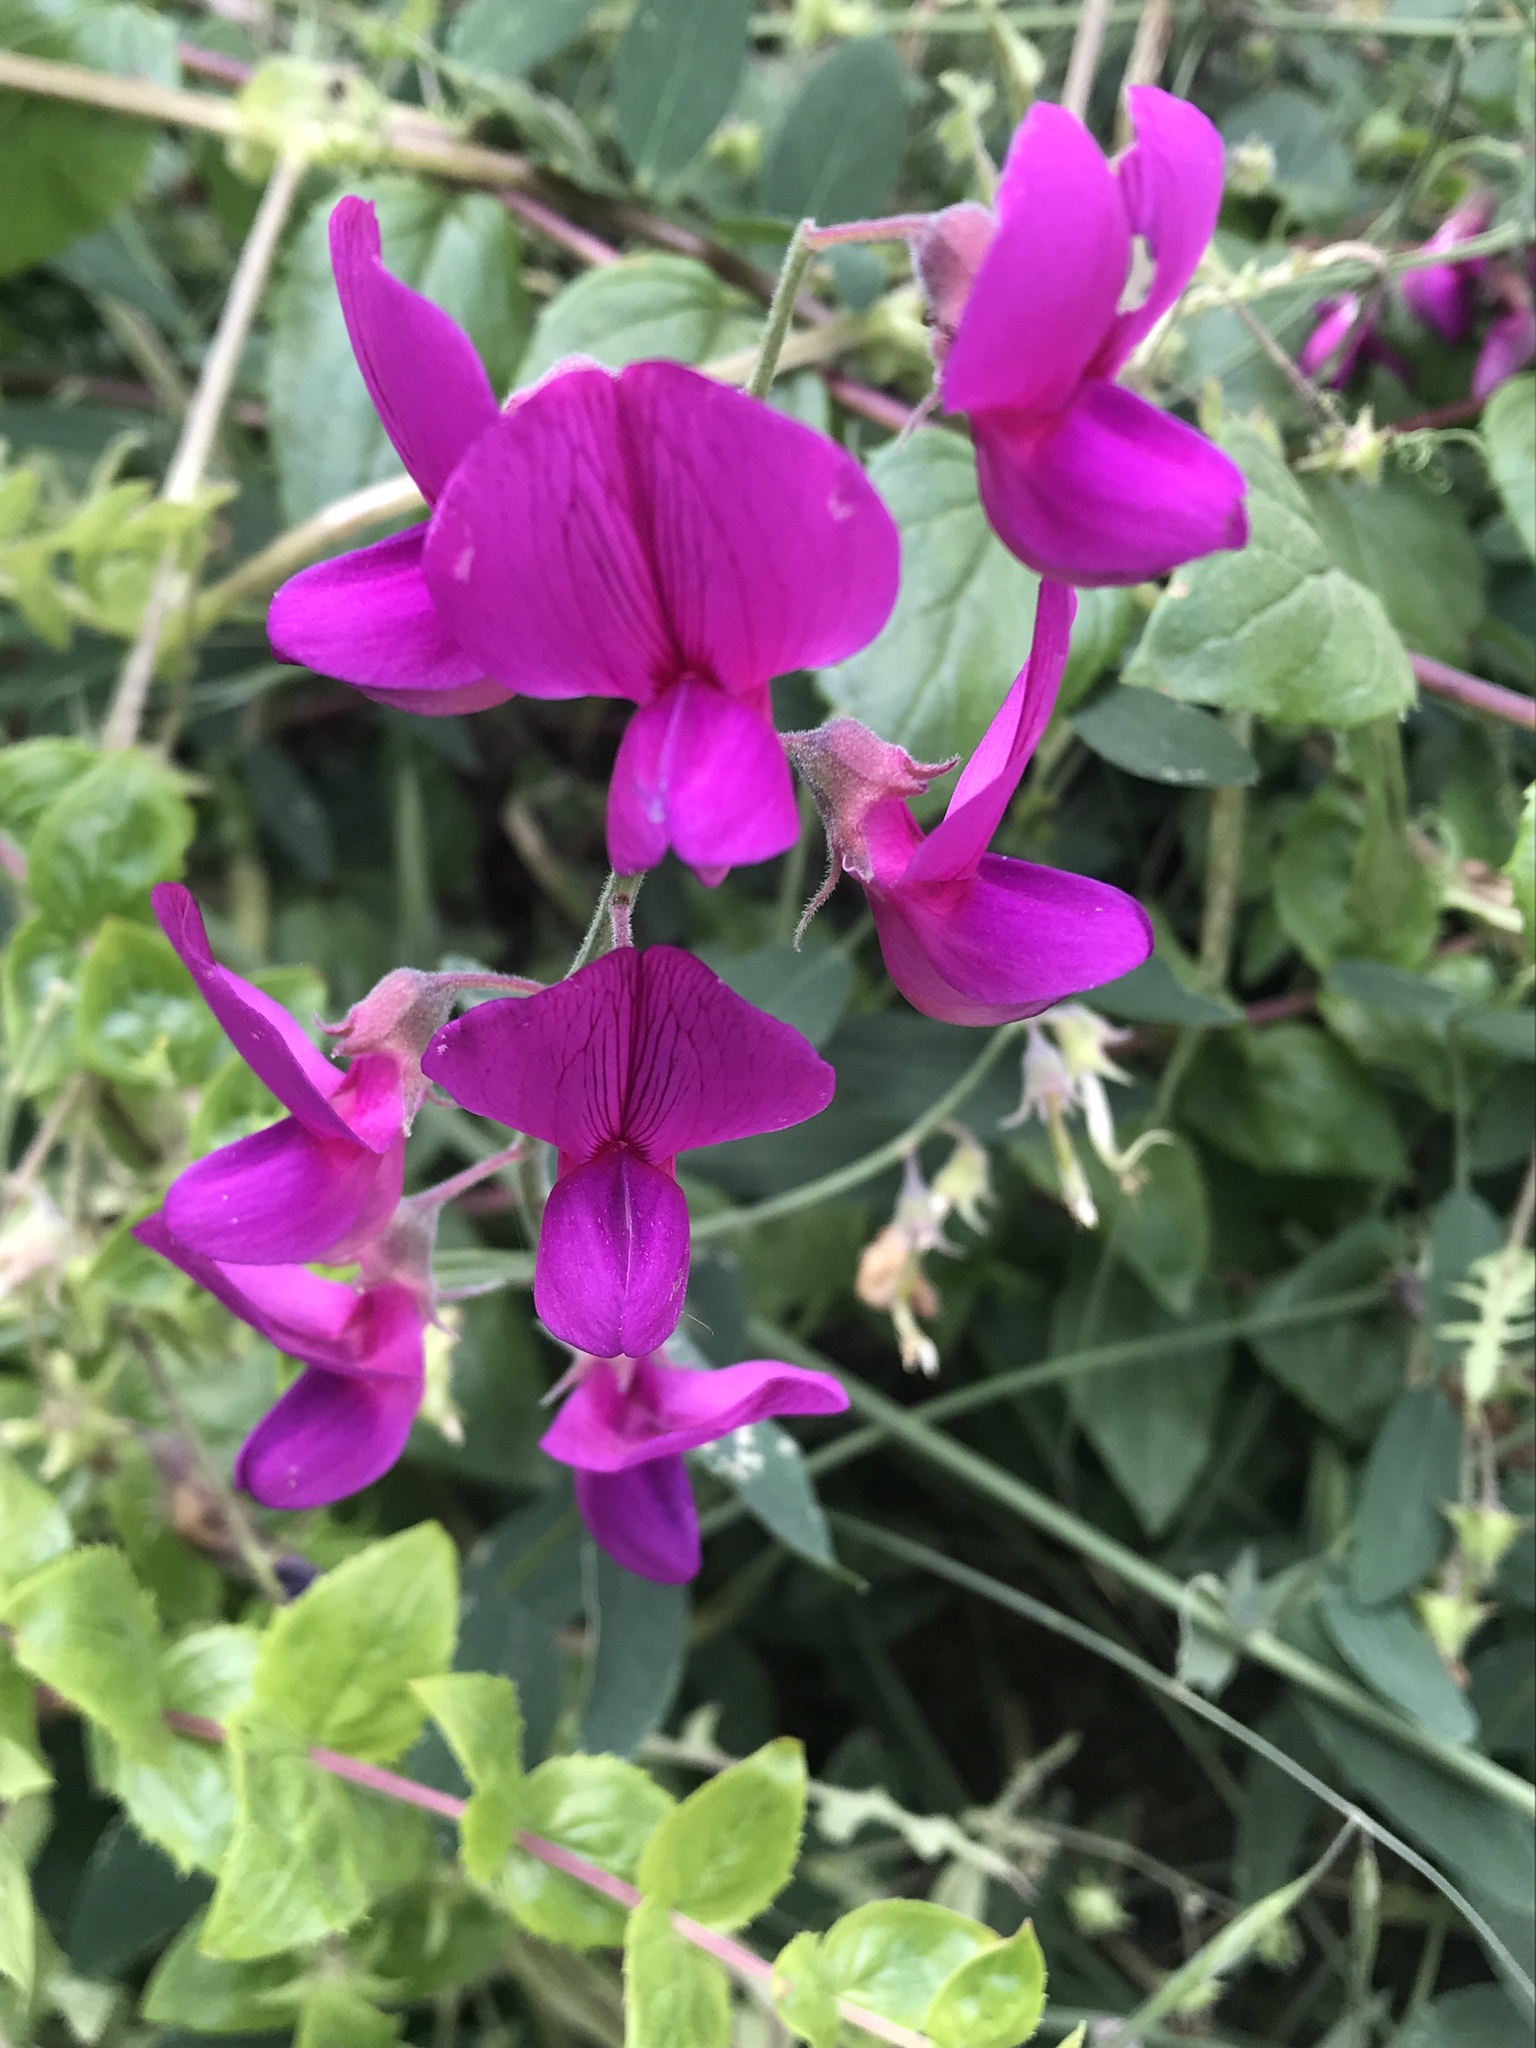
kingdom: Plantae
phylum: Tracheophyta
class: Magnoliopsida
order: Fabales
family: Fabaceae
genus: Lathyrus
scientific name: Lathyrus vestitus
